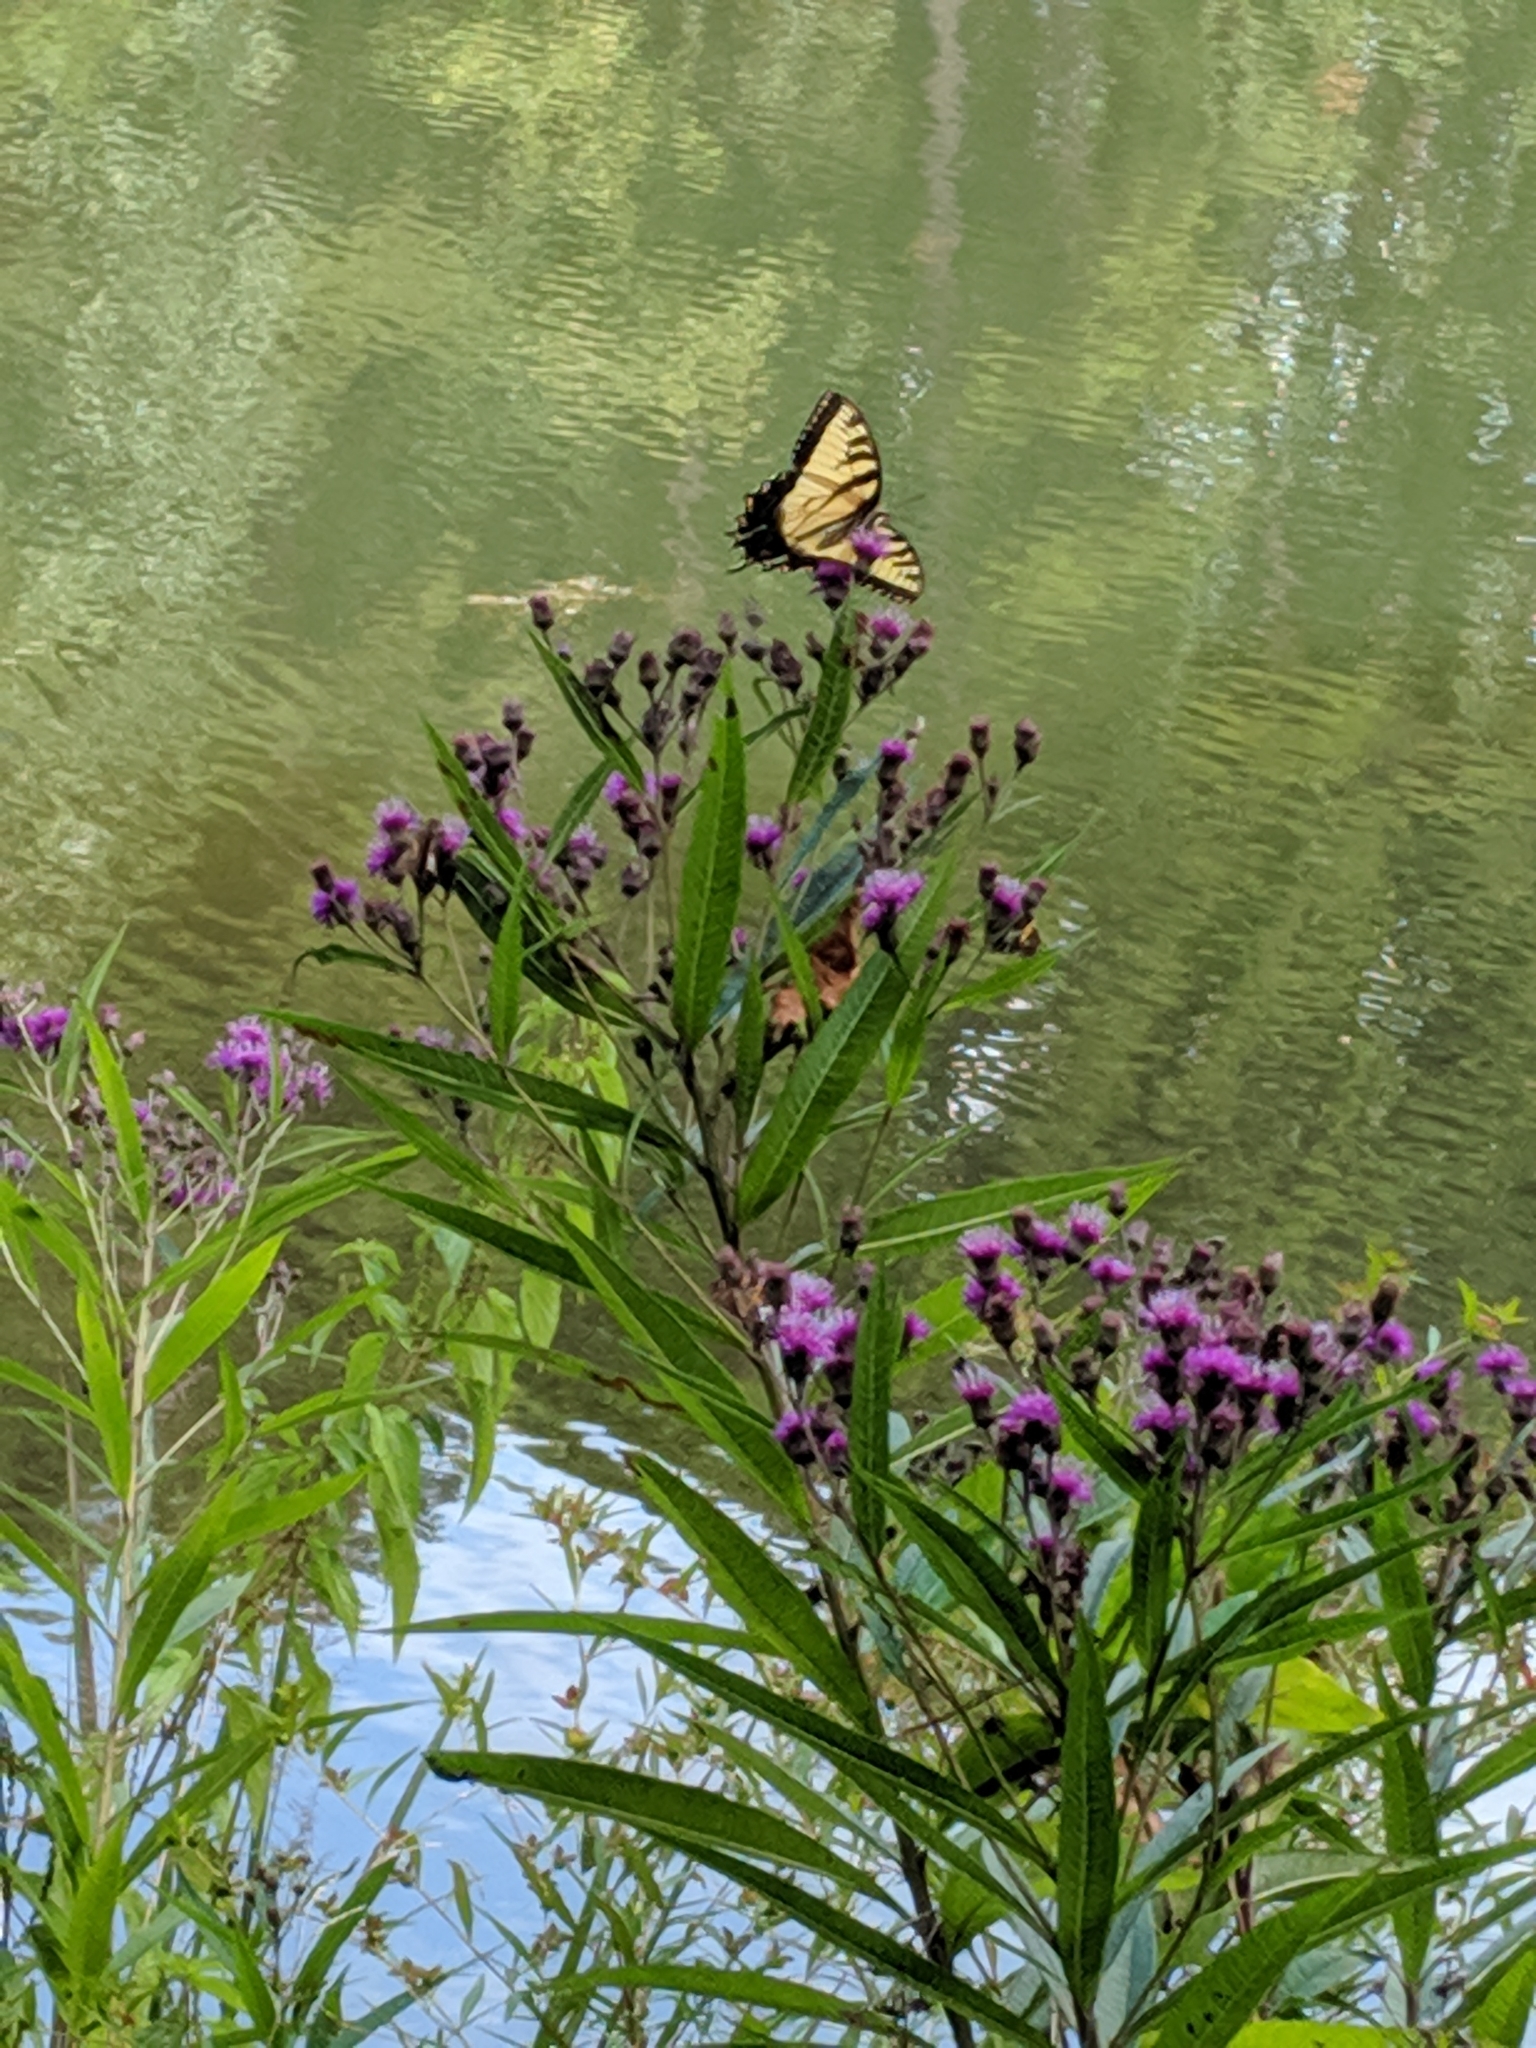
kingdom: Animalia
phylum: Arthropoda
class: Insecta
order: Lepidoptera
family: Papilionidae
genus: Papilio
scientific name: Papilio glaucus
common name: Tiger swallowtail
